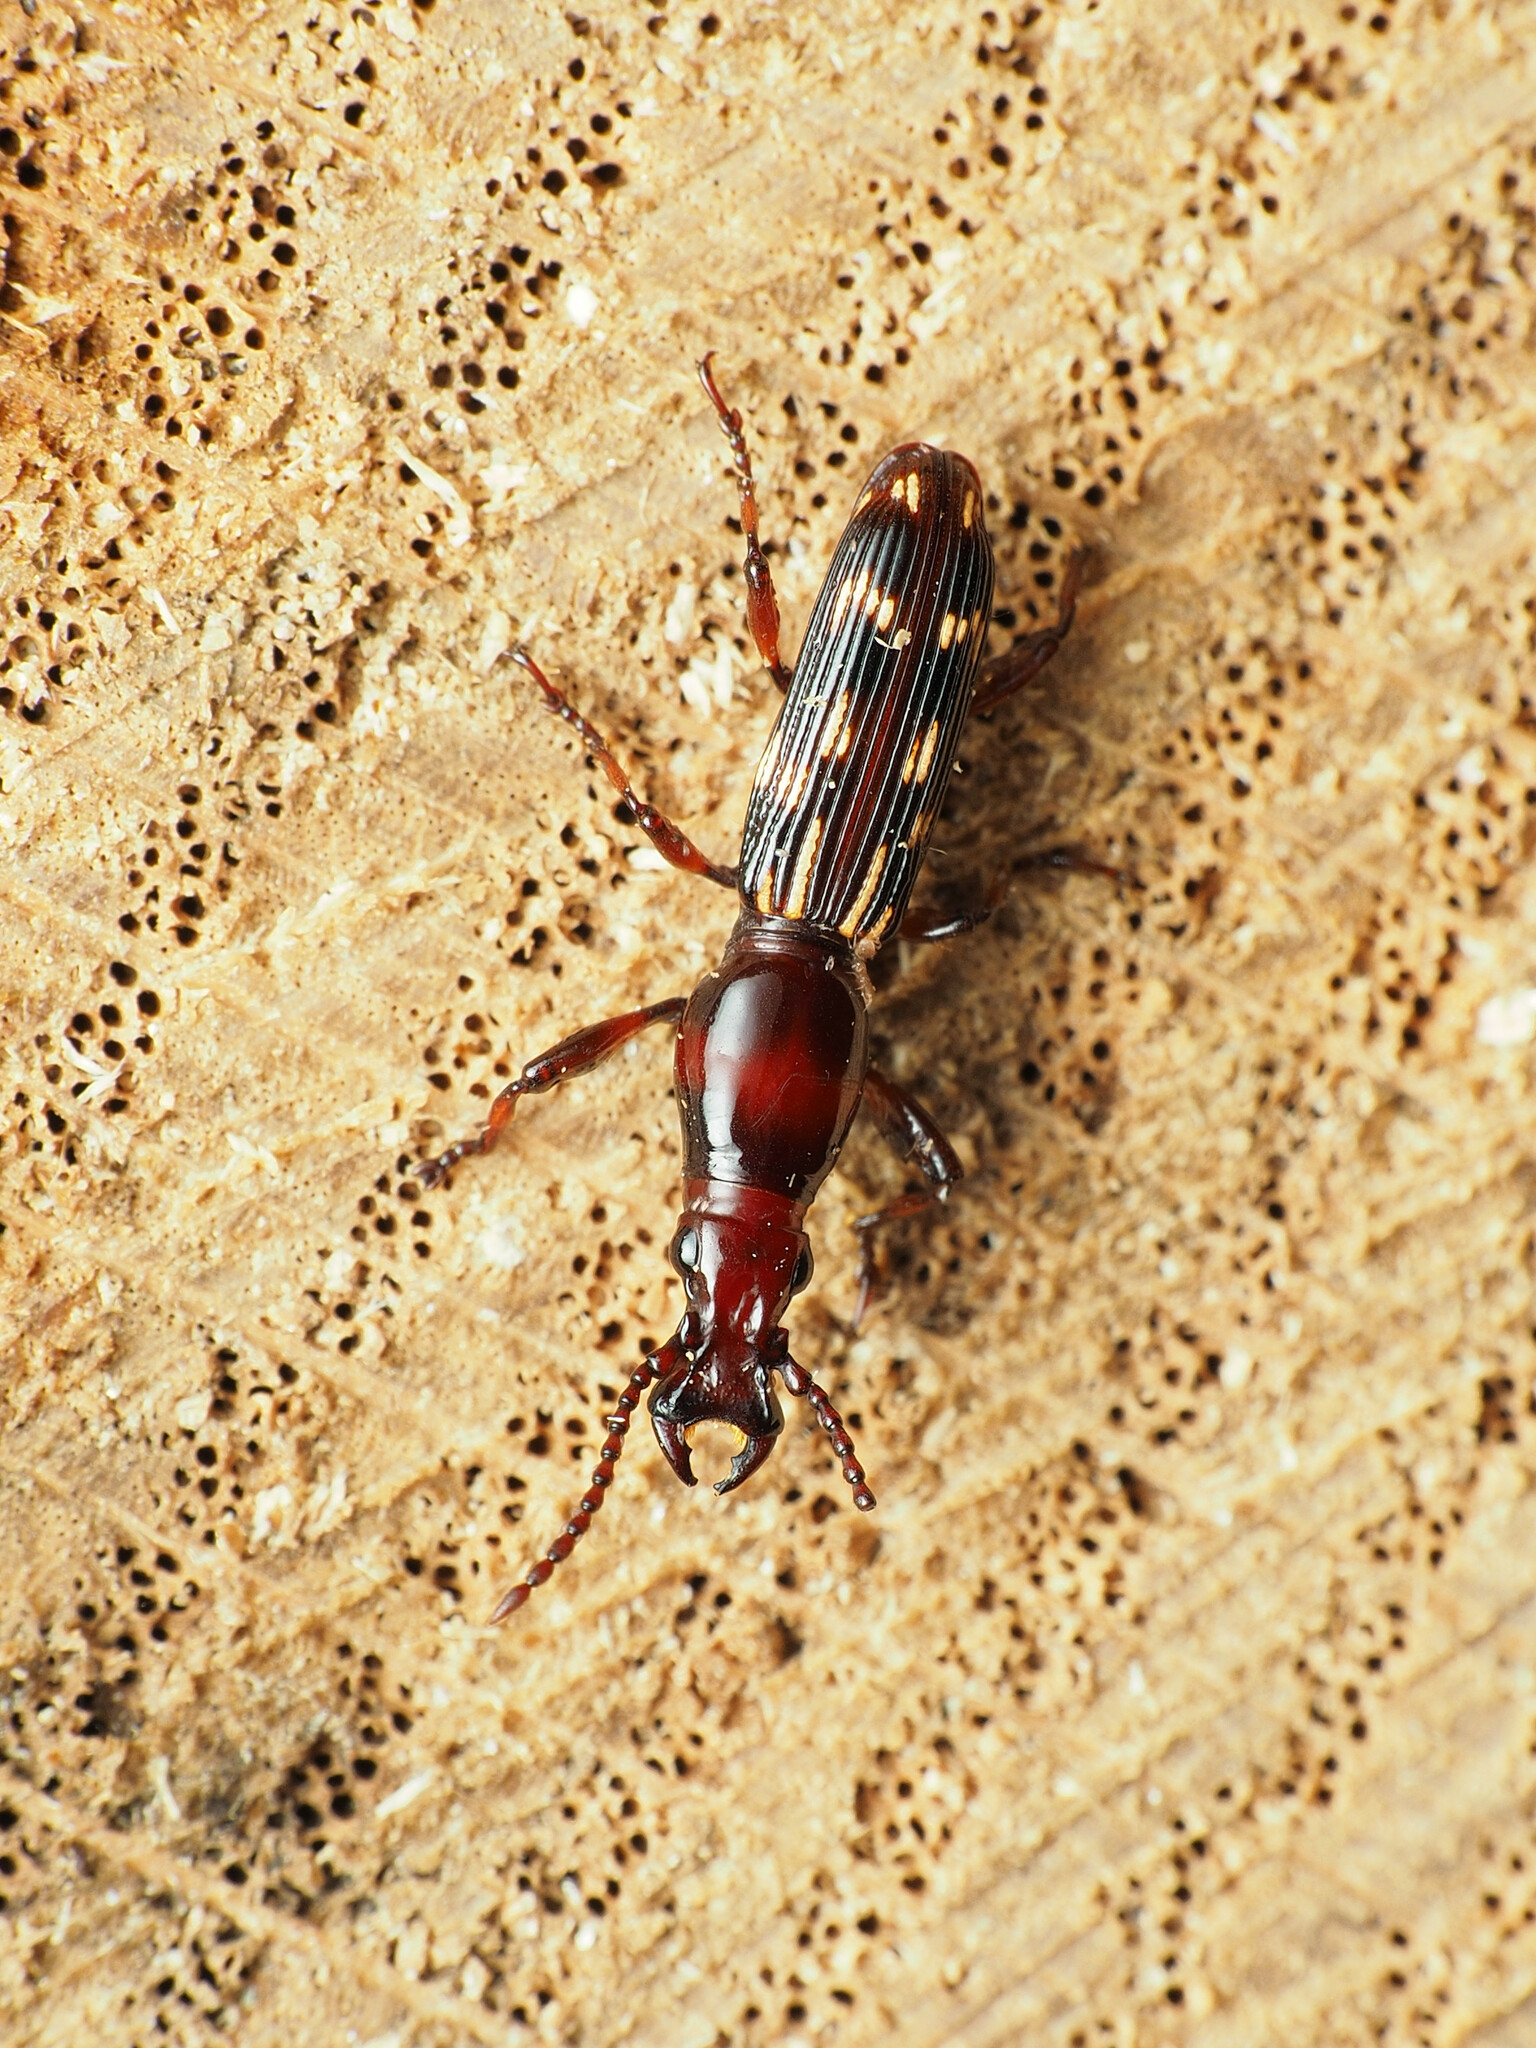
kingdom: Animalia
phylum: Arthropoda
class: Insecta
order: Coleoptera
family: Brentidae
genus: Arrenodes
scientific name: Arrenodes minutus
